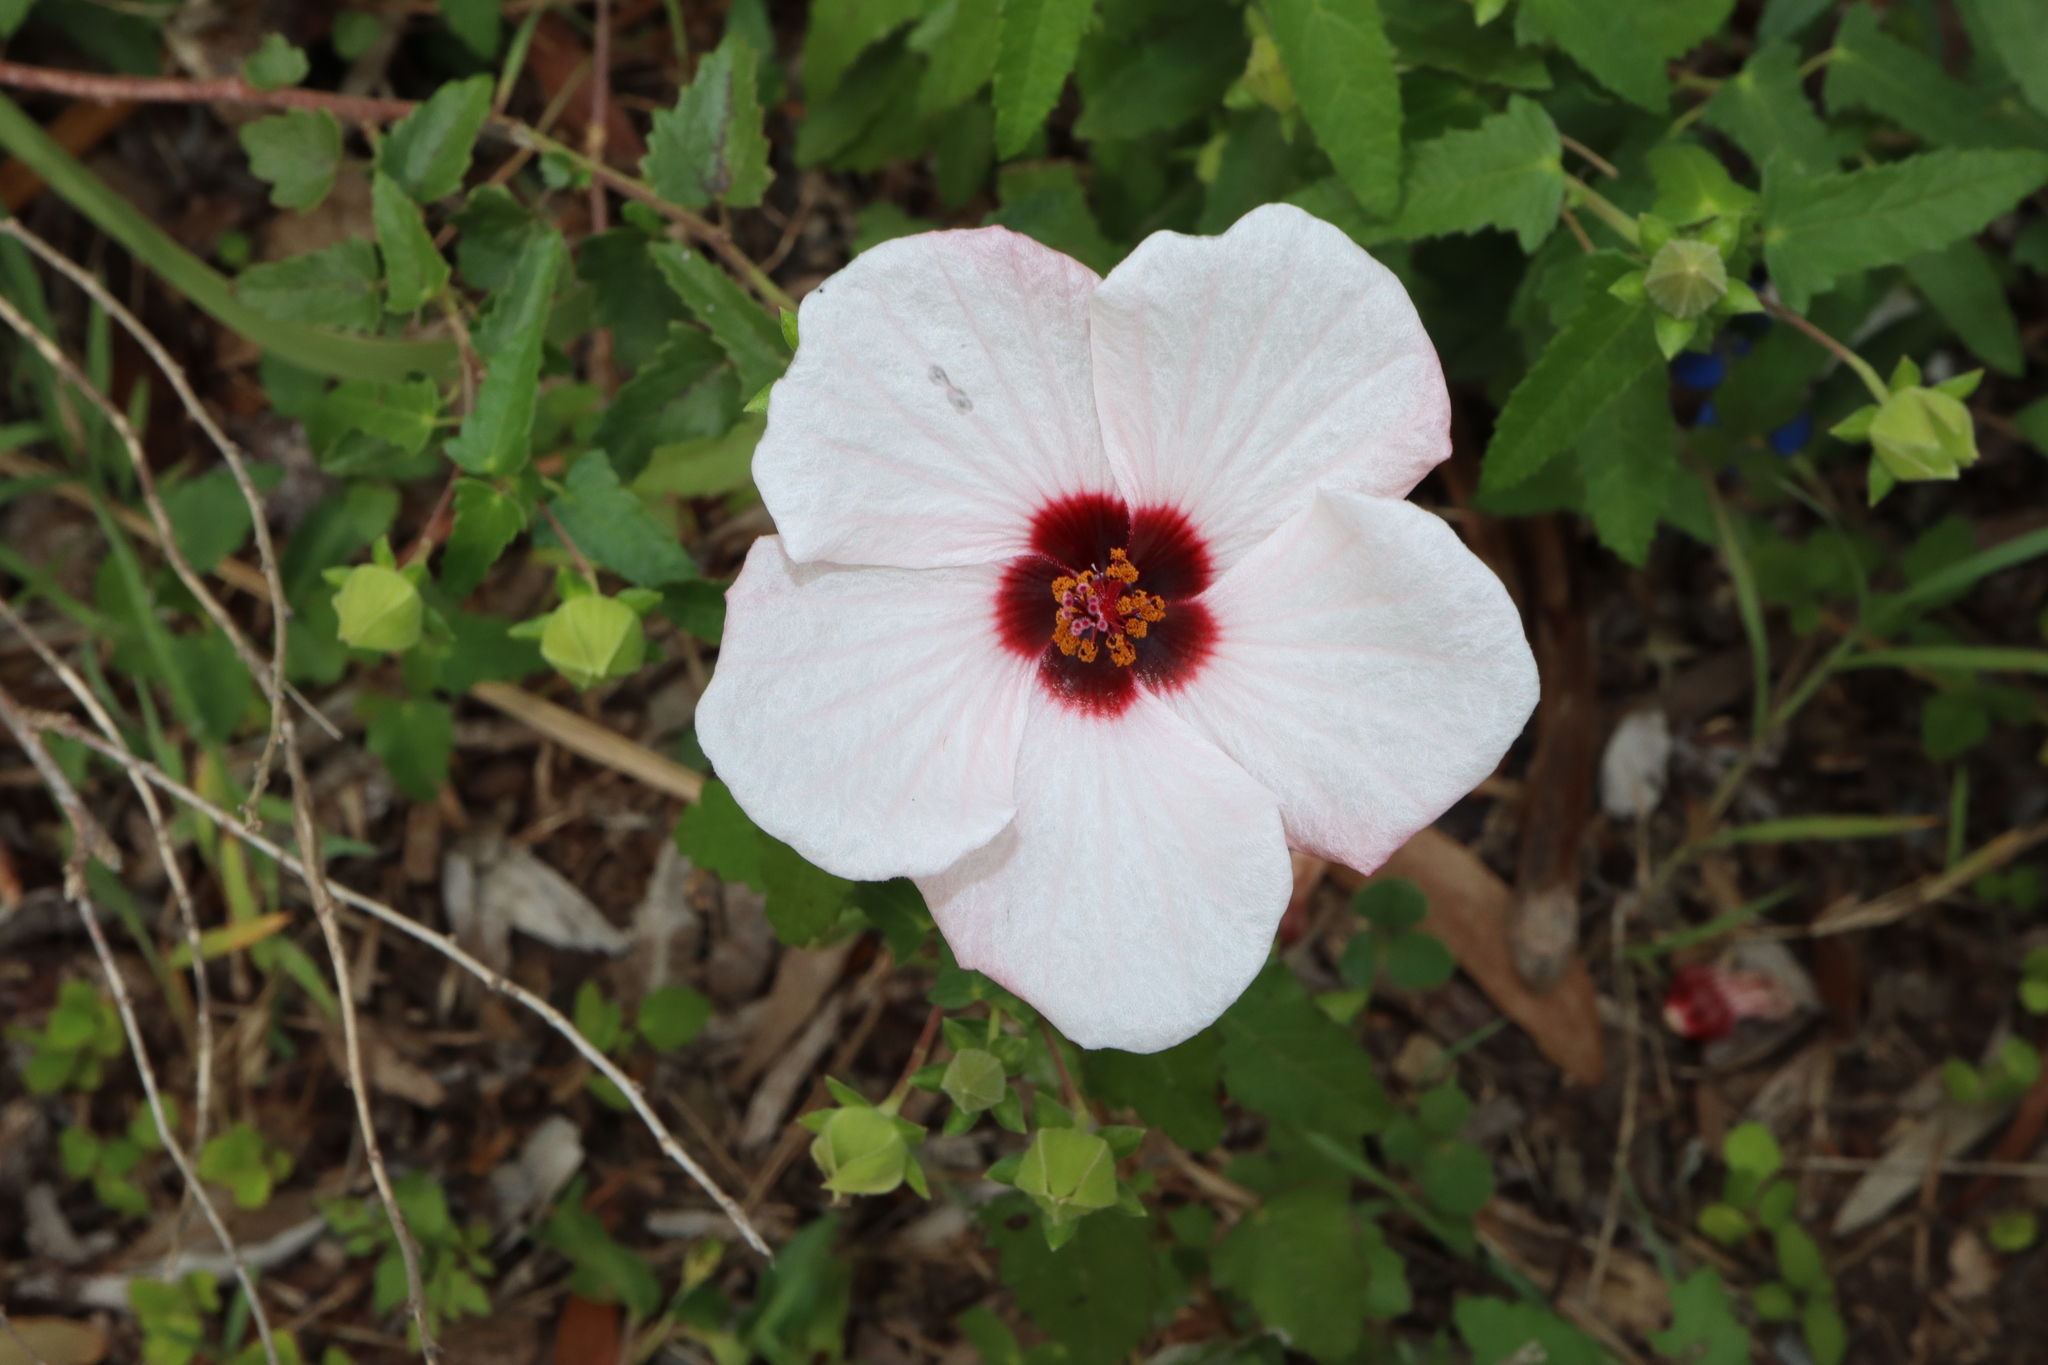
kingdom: Plantae
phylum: Tracheophyta
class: Magnoliopsida
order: Malvales
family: Malvaceae
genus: Pavonia
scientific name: Pavonia hastata
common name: Spearleaf swampmallow
